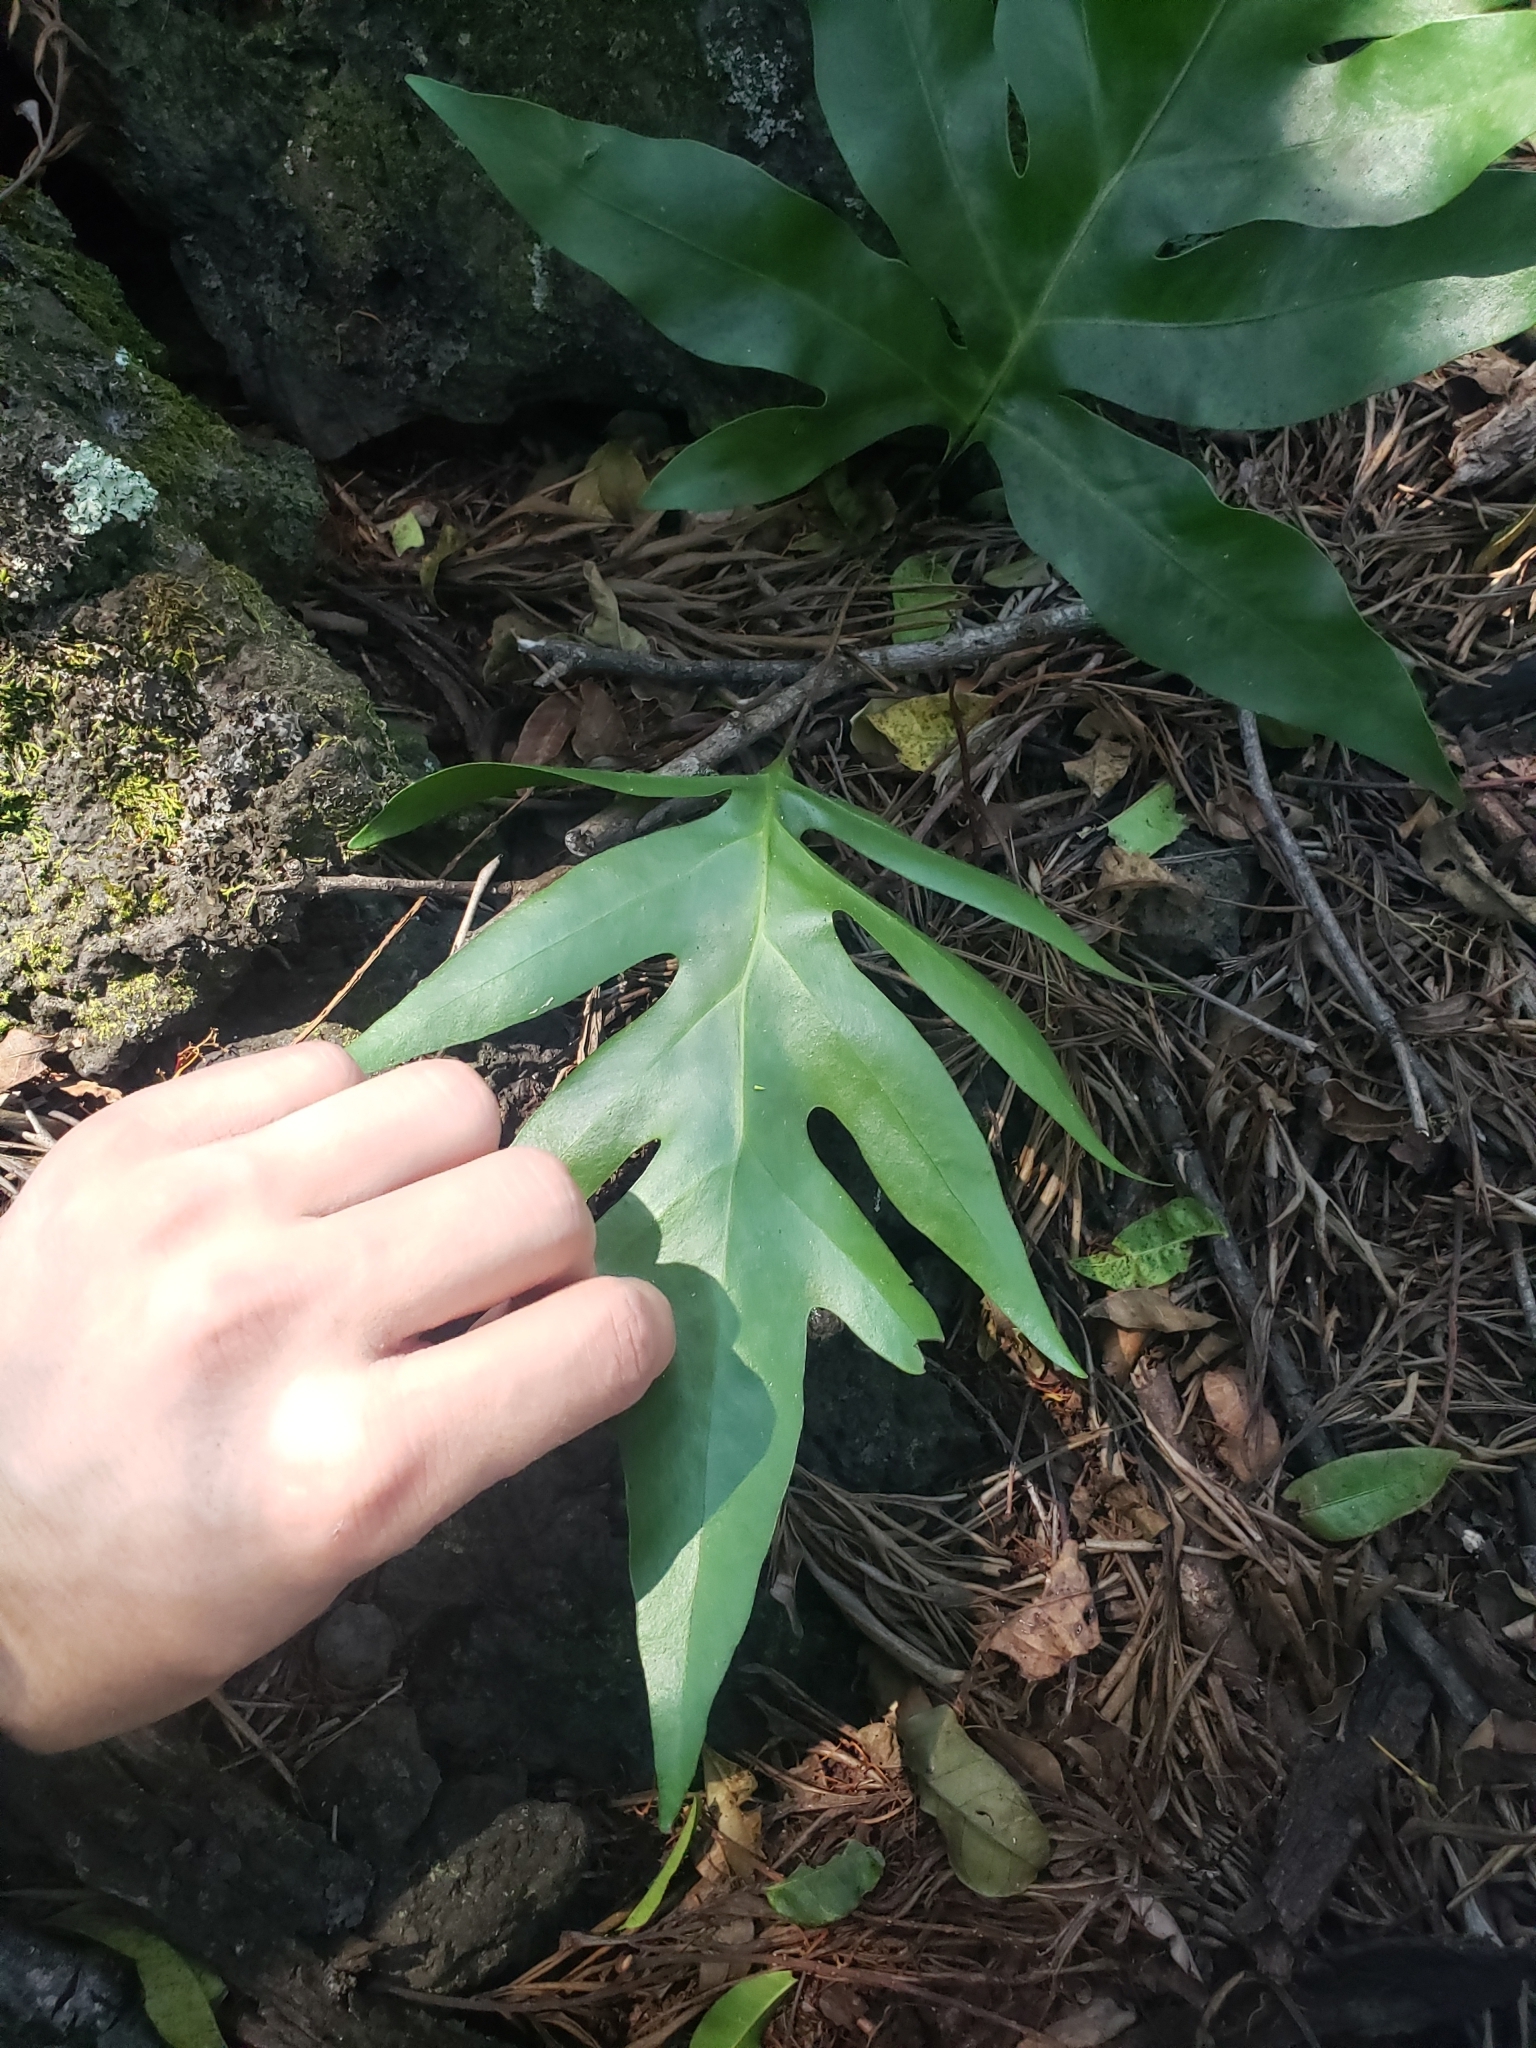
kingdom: Plantae
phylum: Tracheophyta
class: Polypodiopsida
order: Polypodiales
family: Polypodiaceae
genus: Microsorum
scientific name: Microsorum grossum
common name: Musk fern
